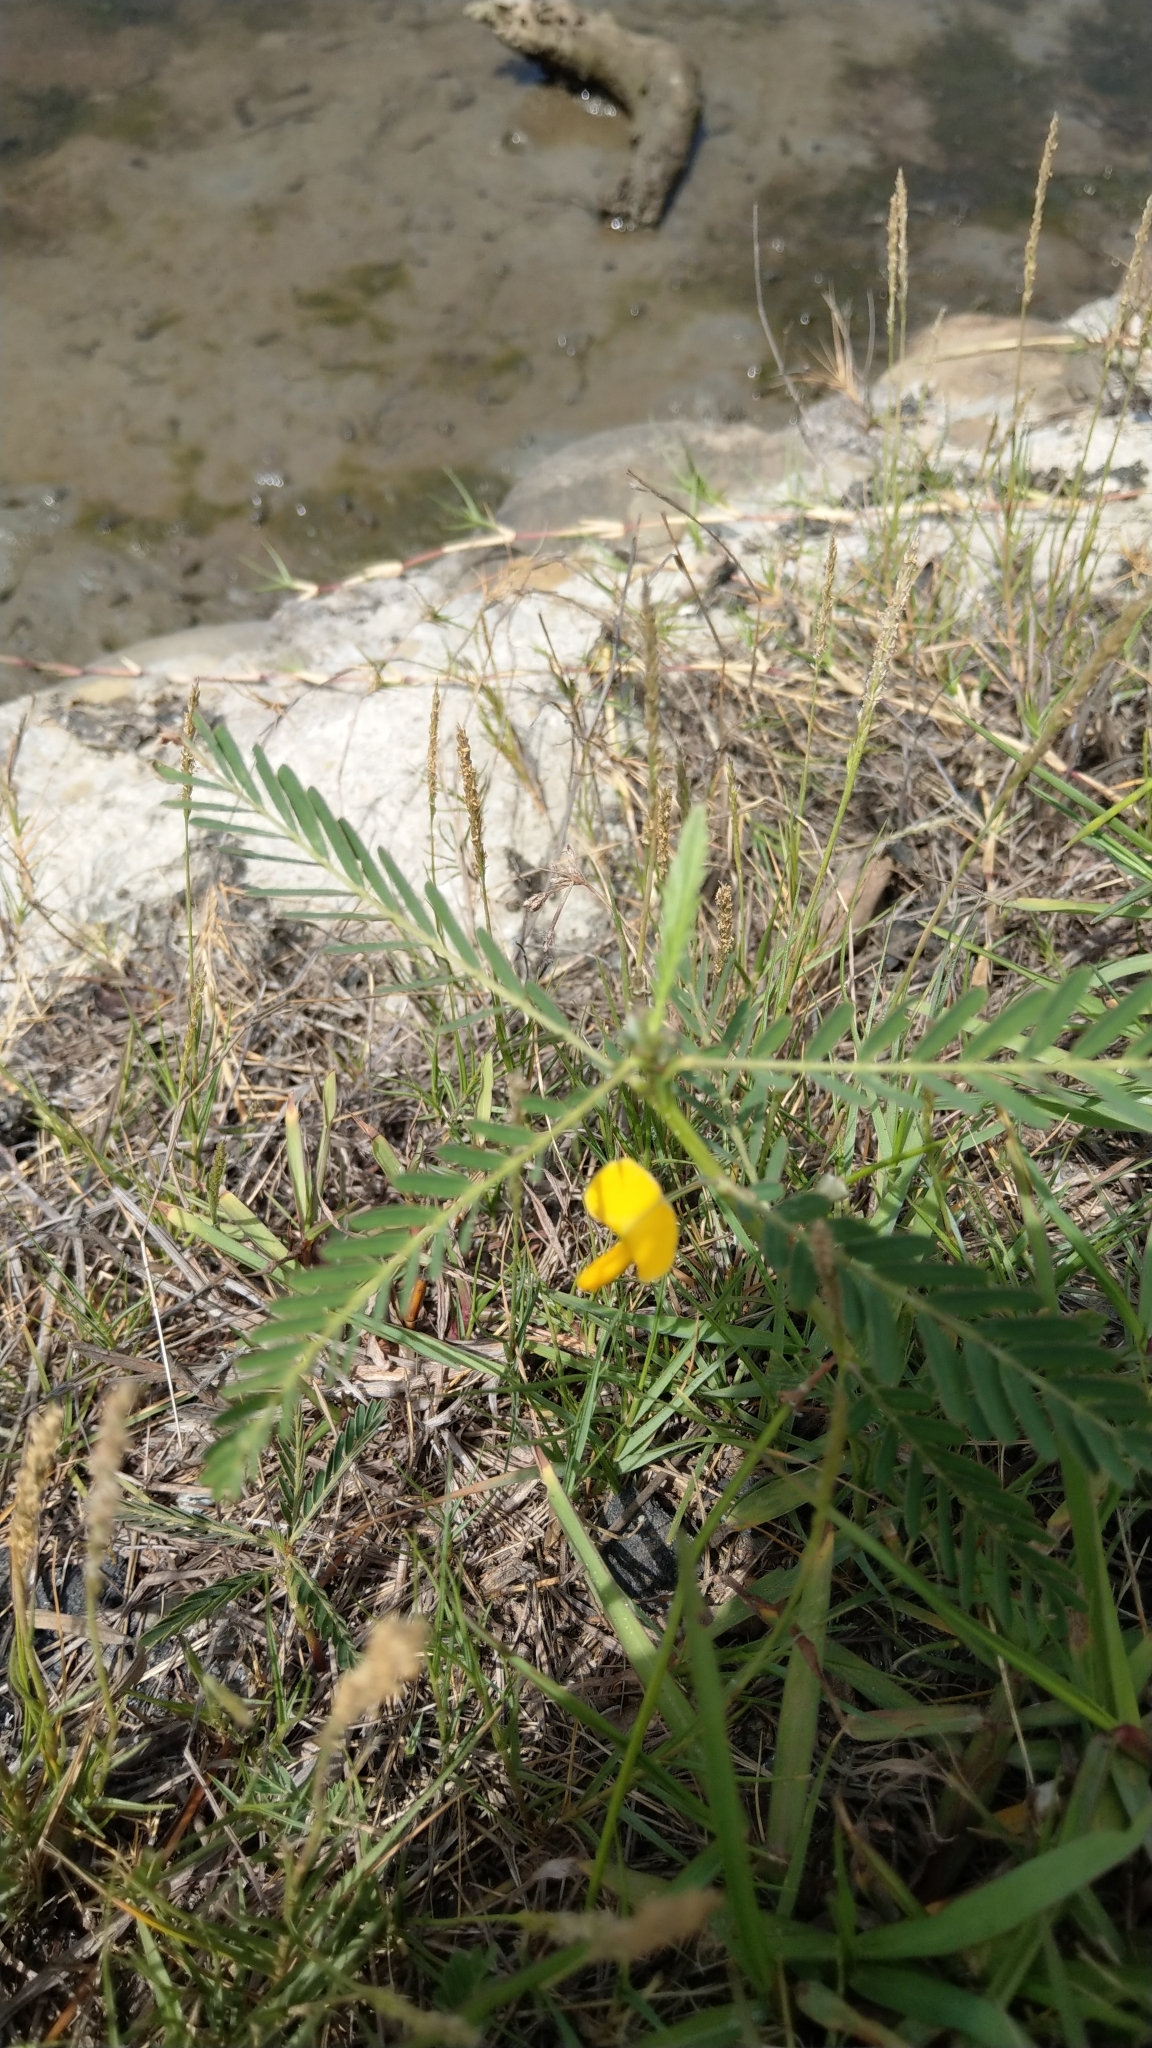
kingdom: Plantae
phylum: Tracheophyta
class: Magnoliopsida
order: Fabales
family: Fabaceae
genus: Sesbania
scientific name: Sesbania cannabina
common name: Canicha
